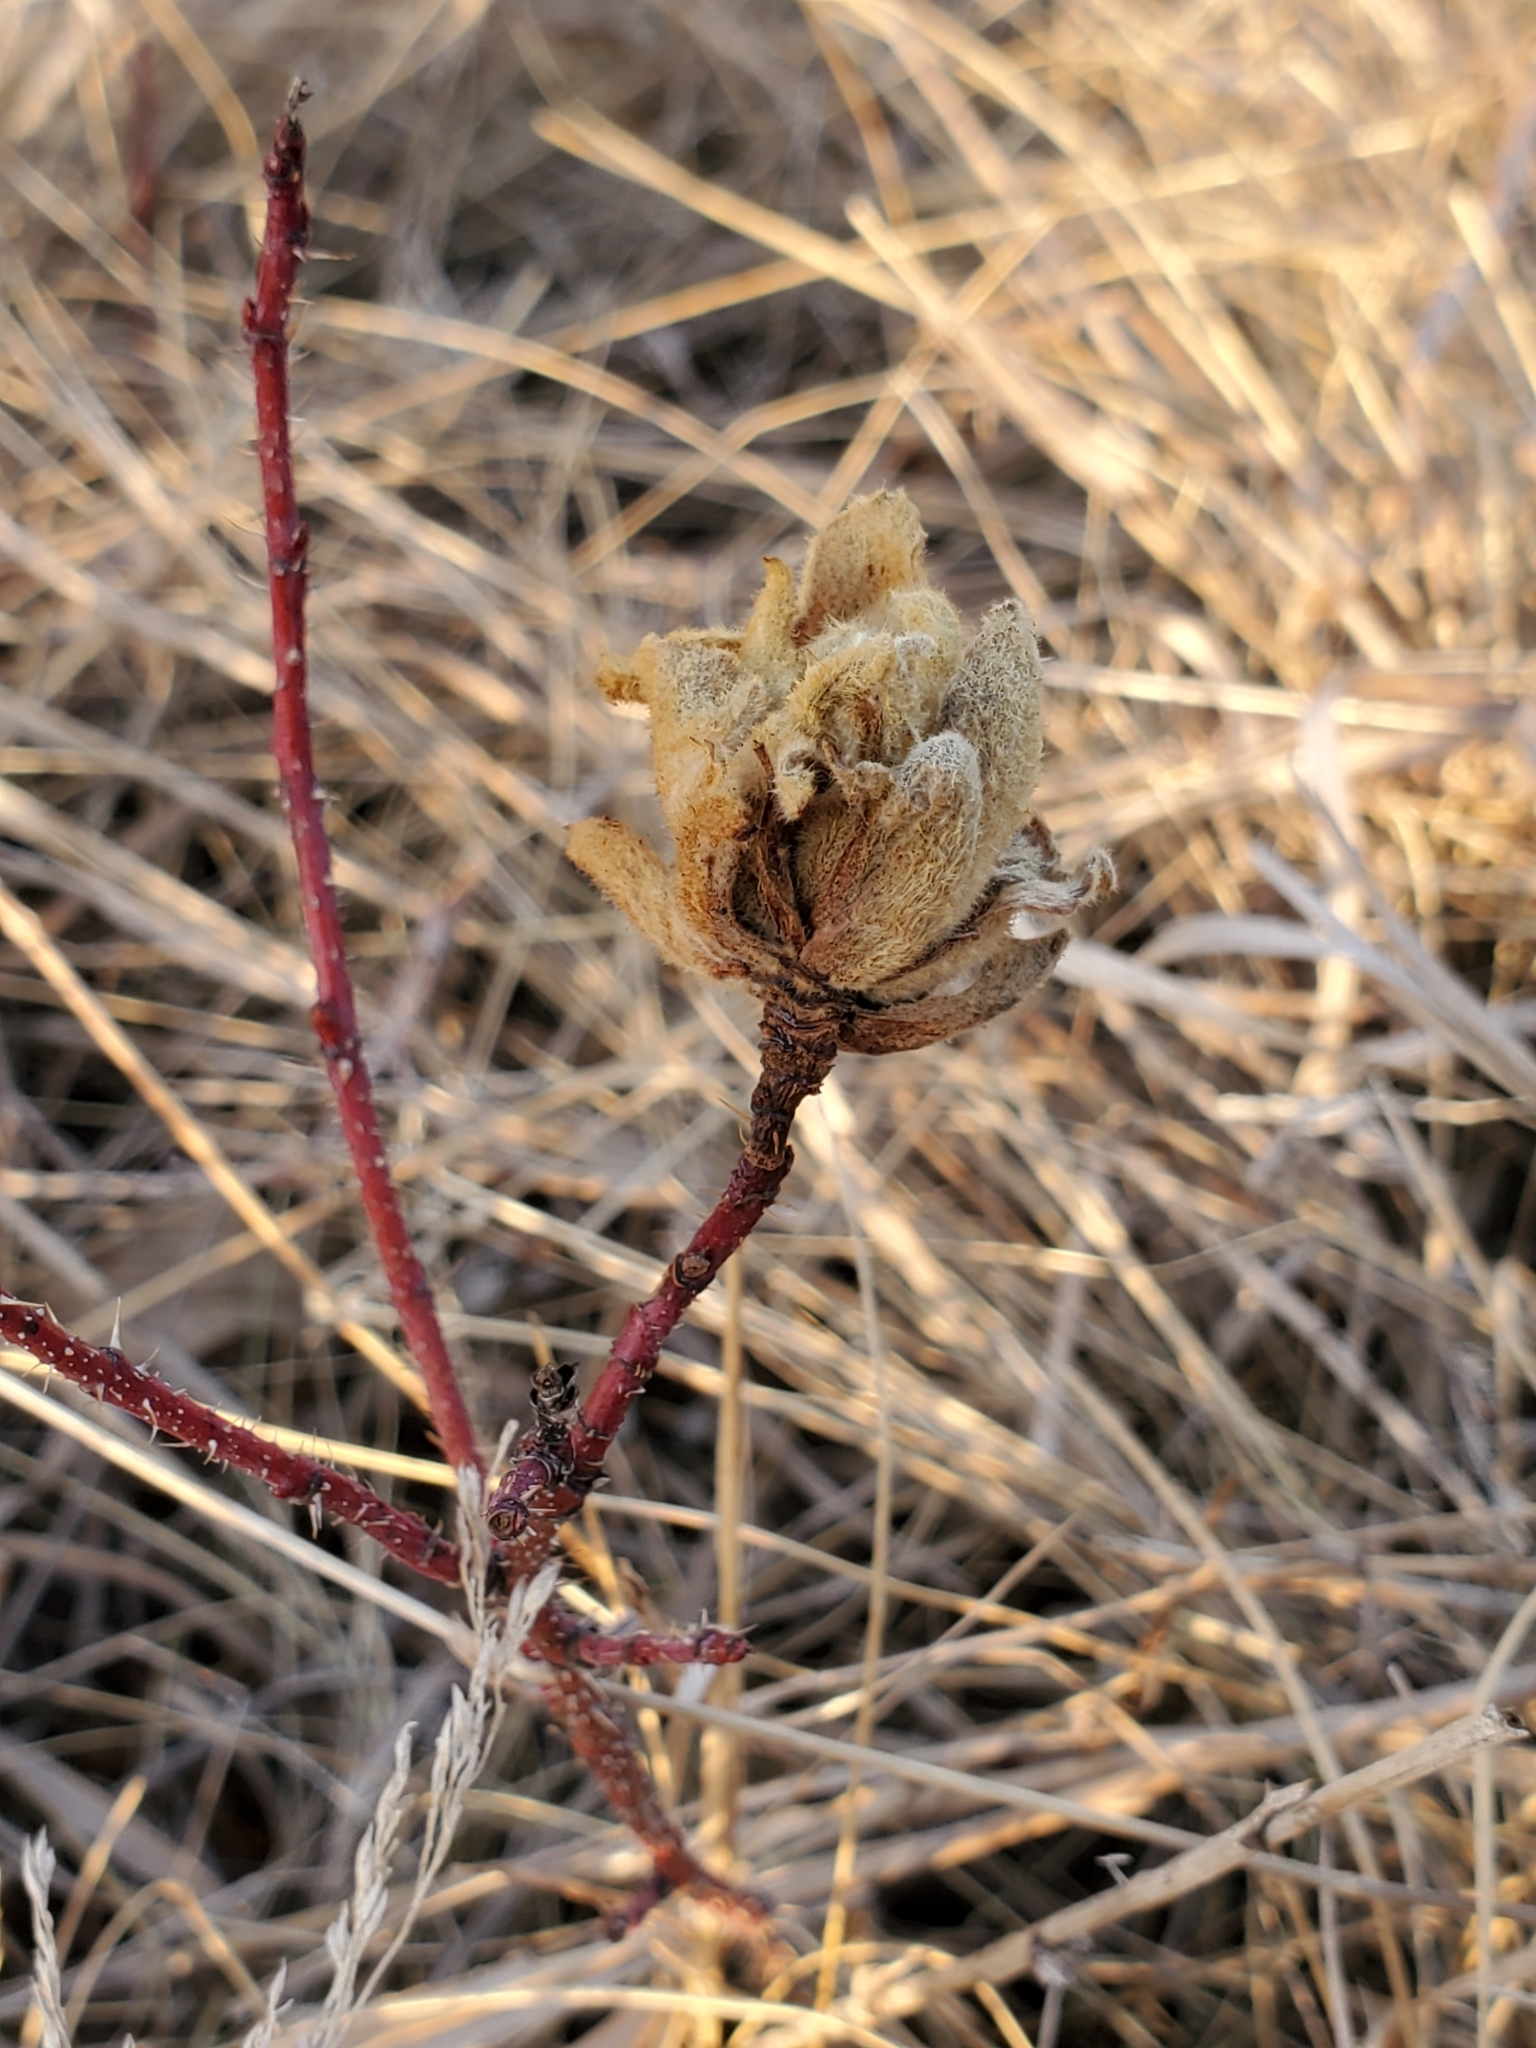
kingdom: Animalia
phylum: Arthropoda
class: Insecta
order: Diptera
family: Cecidomyiidae
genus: Rabdophaga
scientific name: Rabdophaga rosacea
